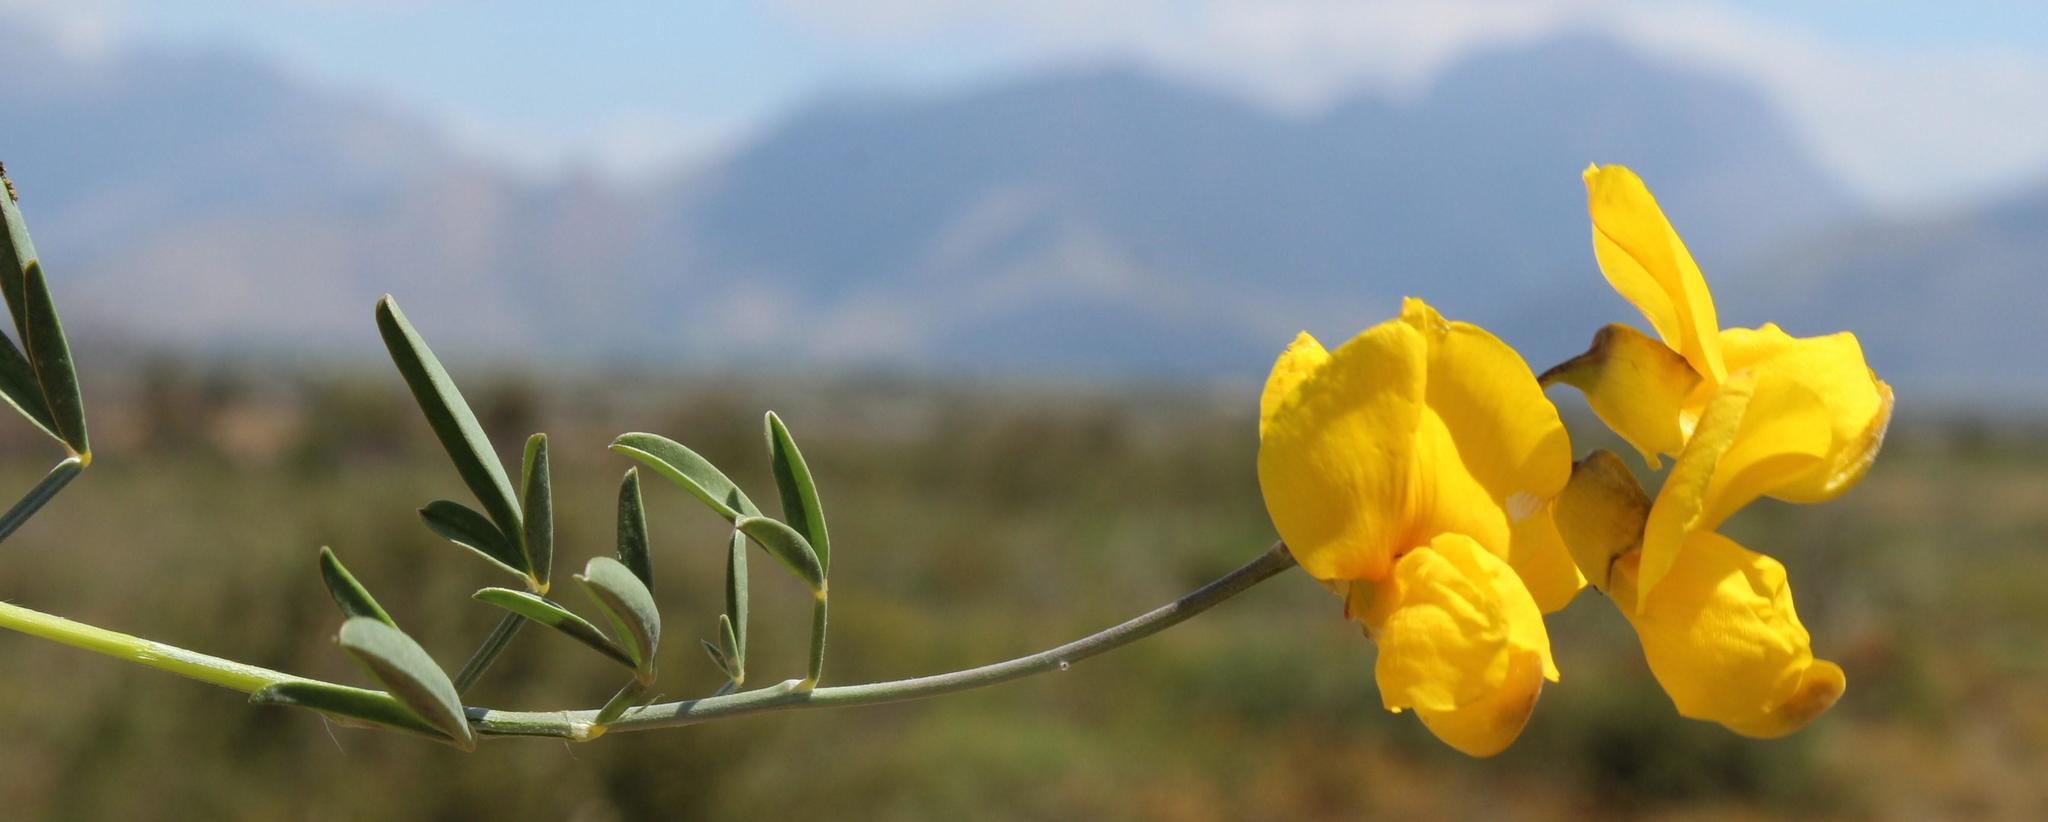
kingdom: Plantae
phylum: Tracheophyta
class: Magnoliopsida
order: Fabales
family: Fabaceae
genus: Calobota
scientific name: Calobota cytisoides
